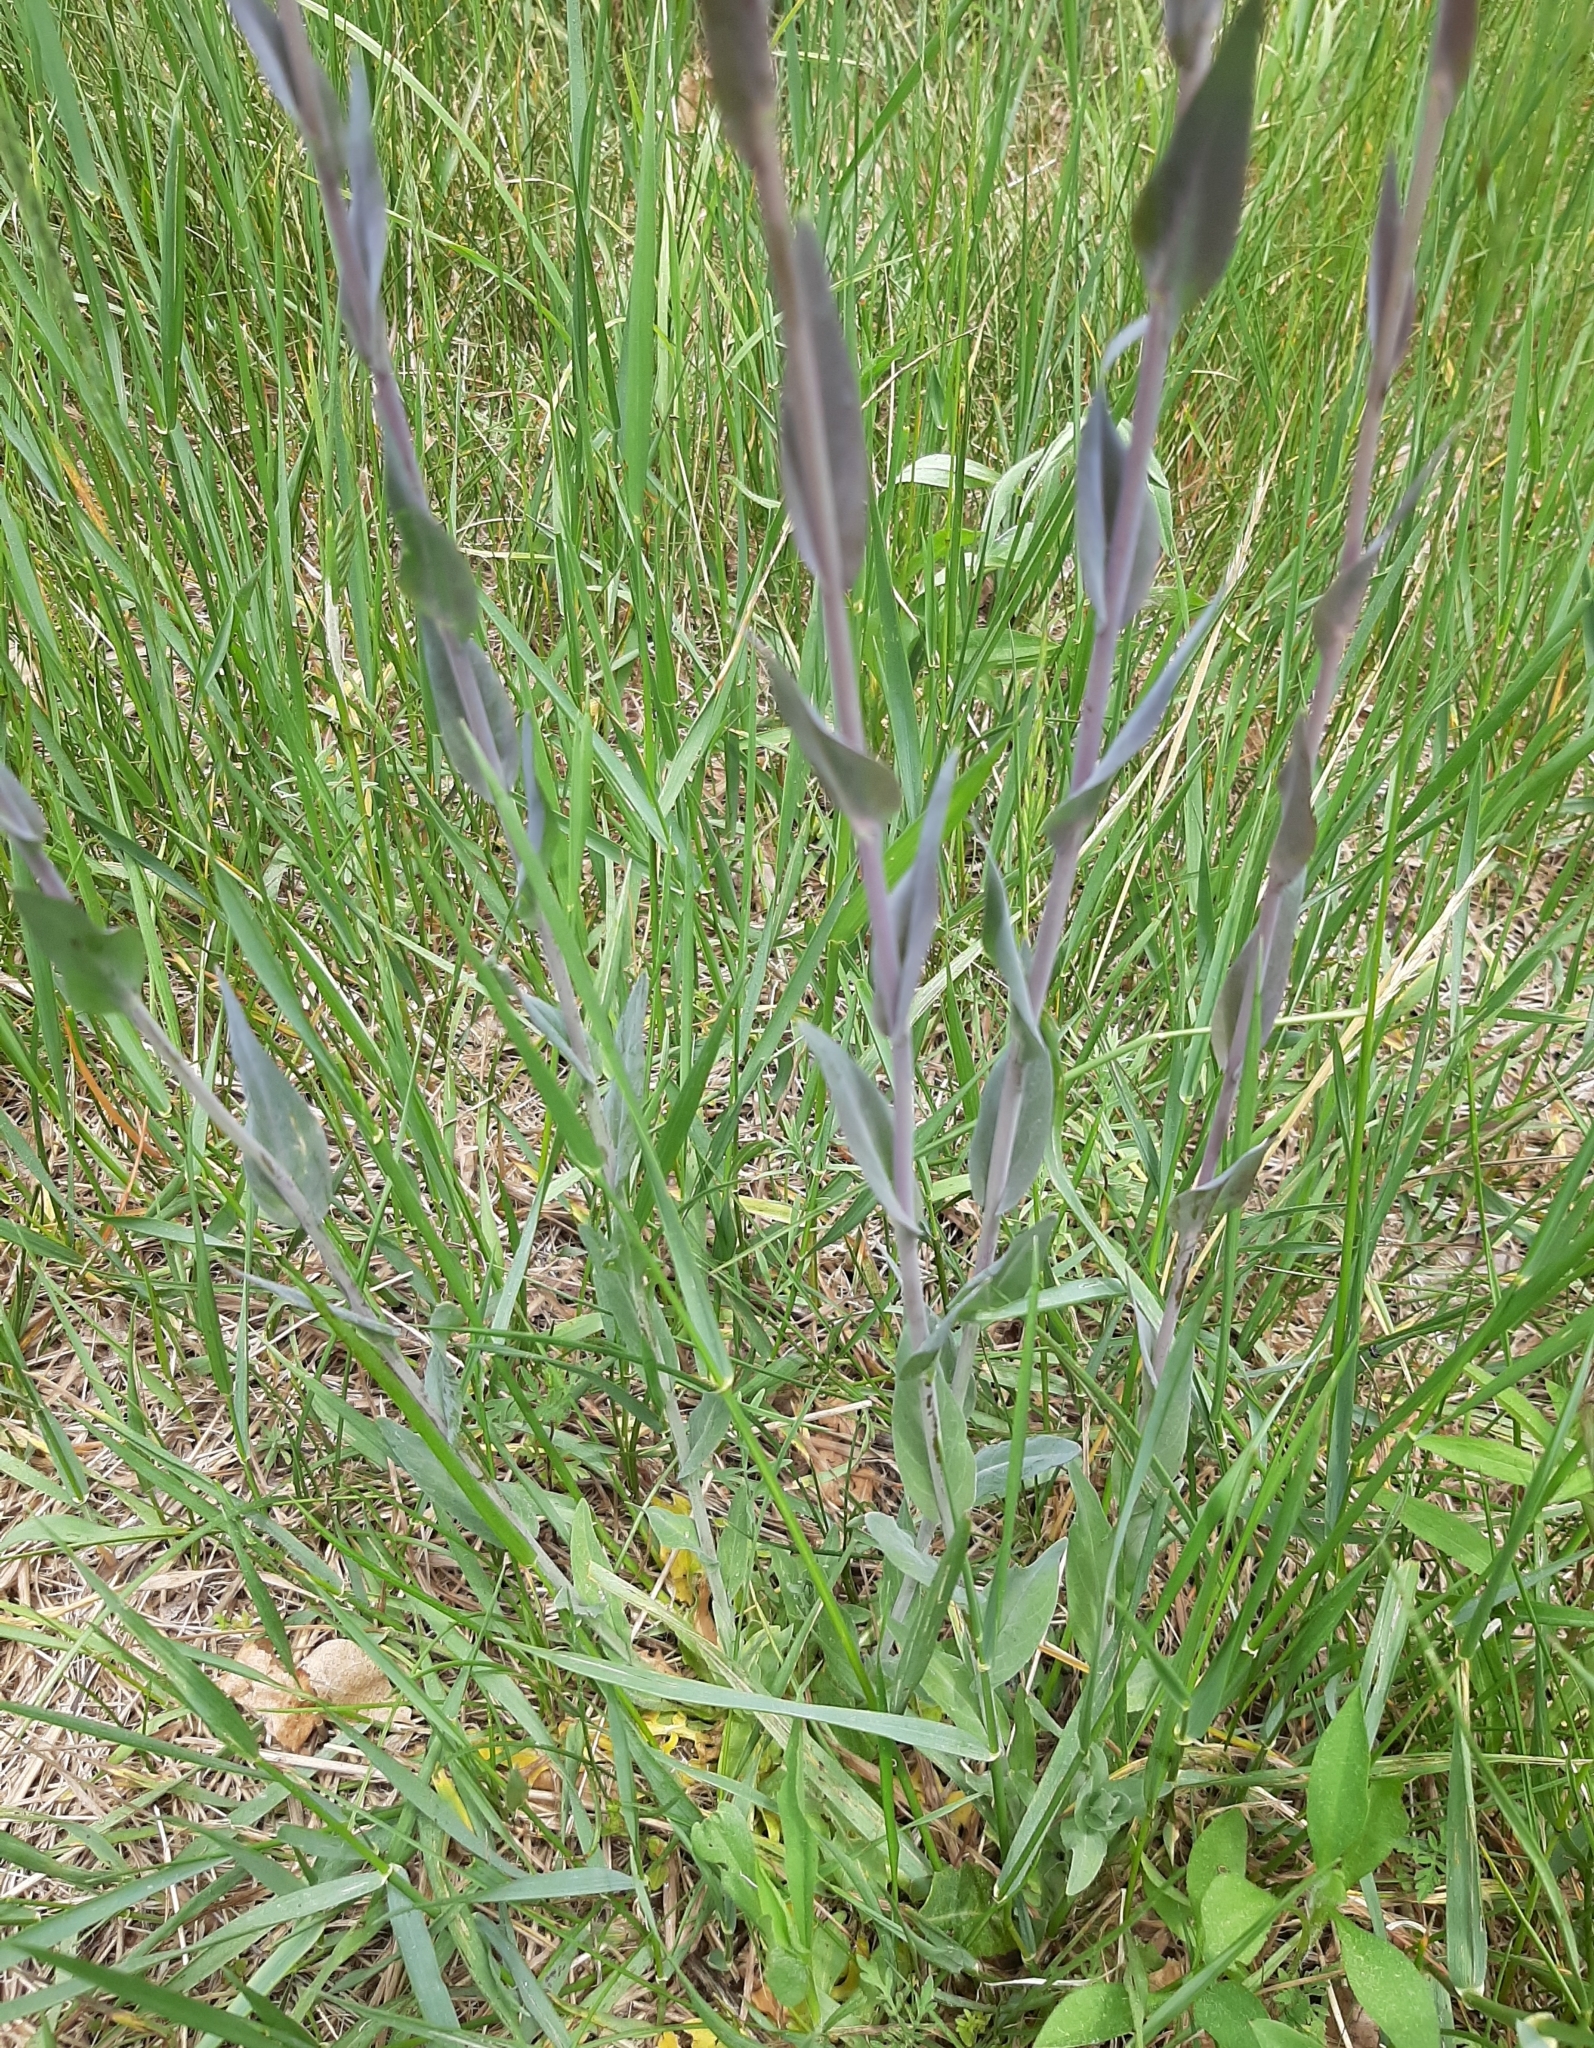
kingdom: Plantae
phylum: Tracheophyta
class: Magnoliopsida
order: Brassicales
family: Brassicaceae
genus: Turritis
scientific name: Turritis glabra
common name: Tower rockcress
